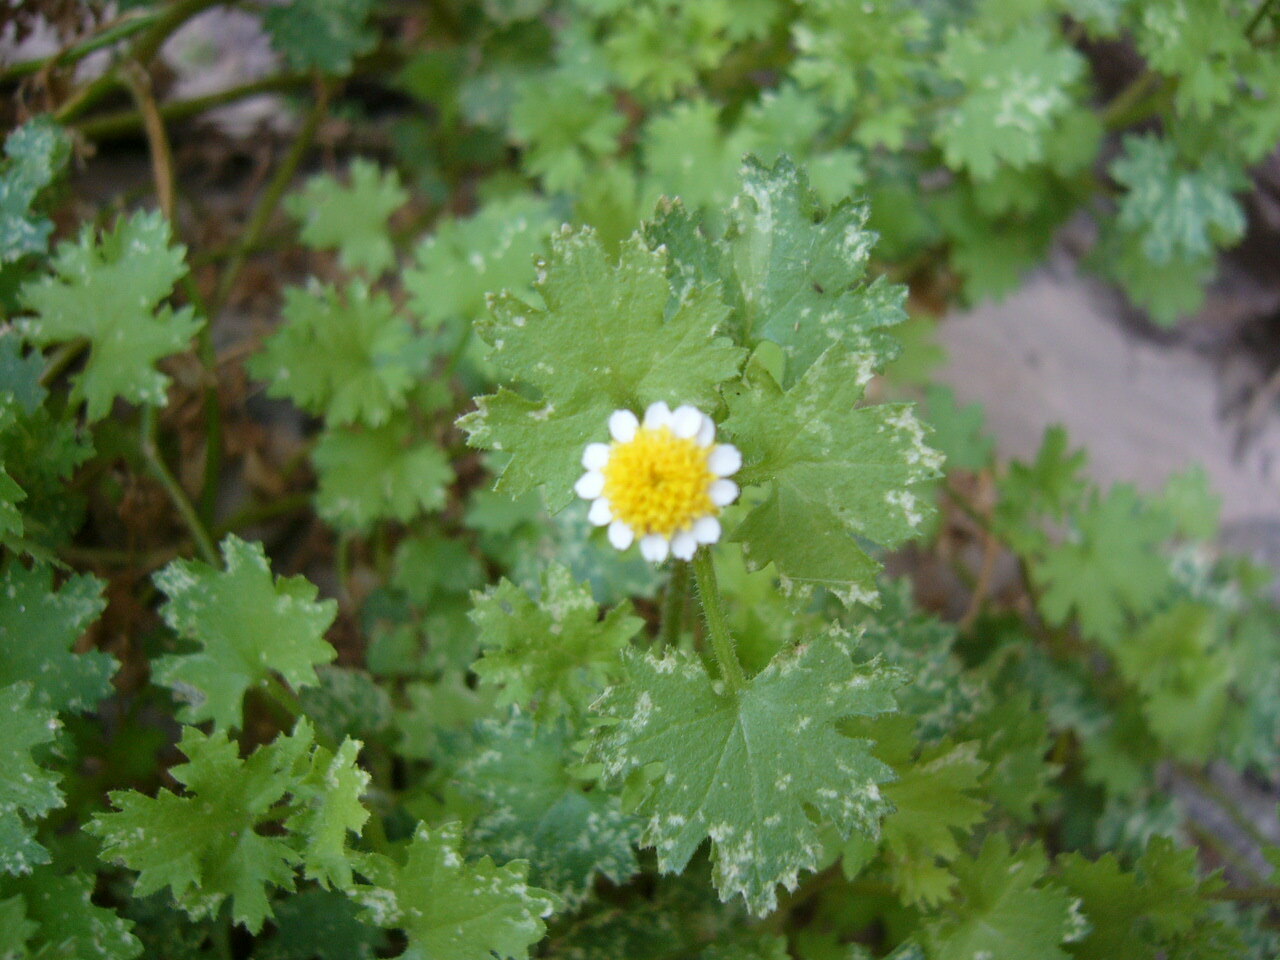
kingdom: Plantae
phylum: Tracheophyta
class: Magnoliopsida
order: Asterales
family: Asteraceae
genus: Laphamia
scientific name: Laphamia emoryi
